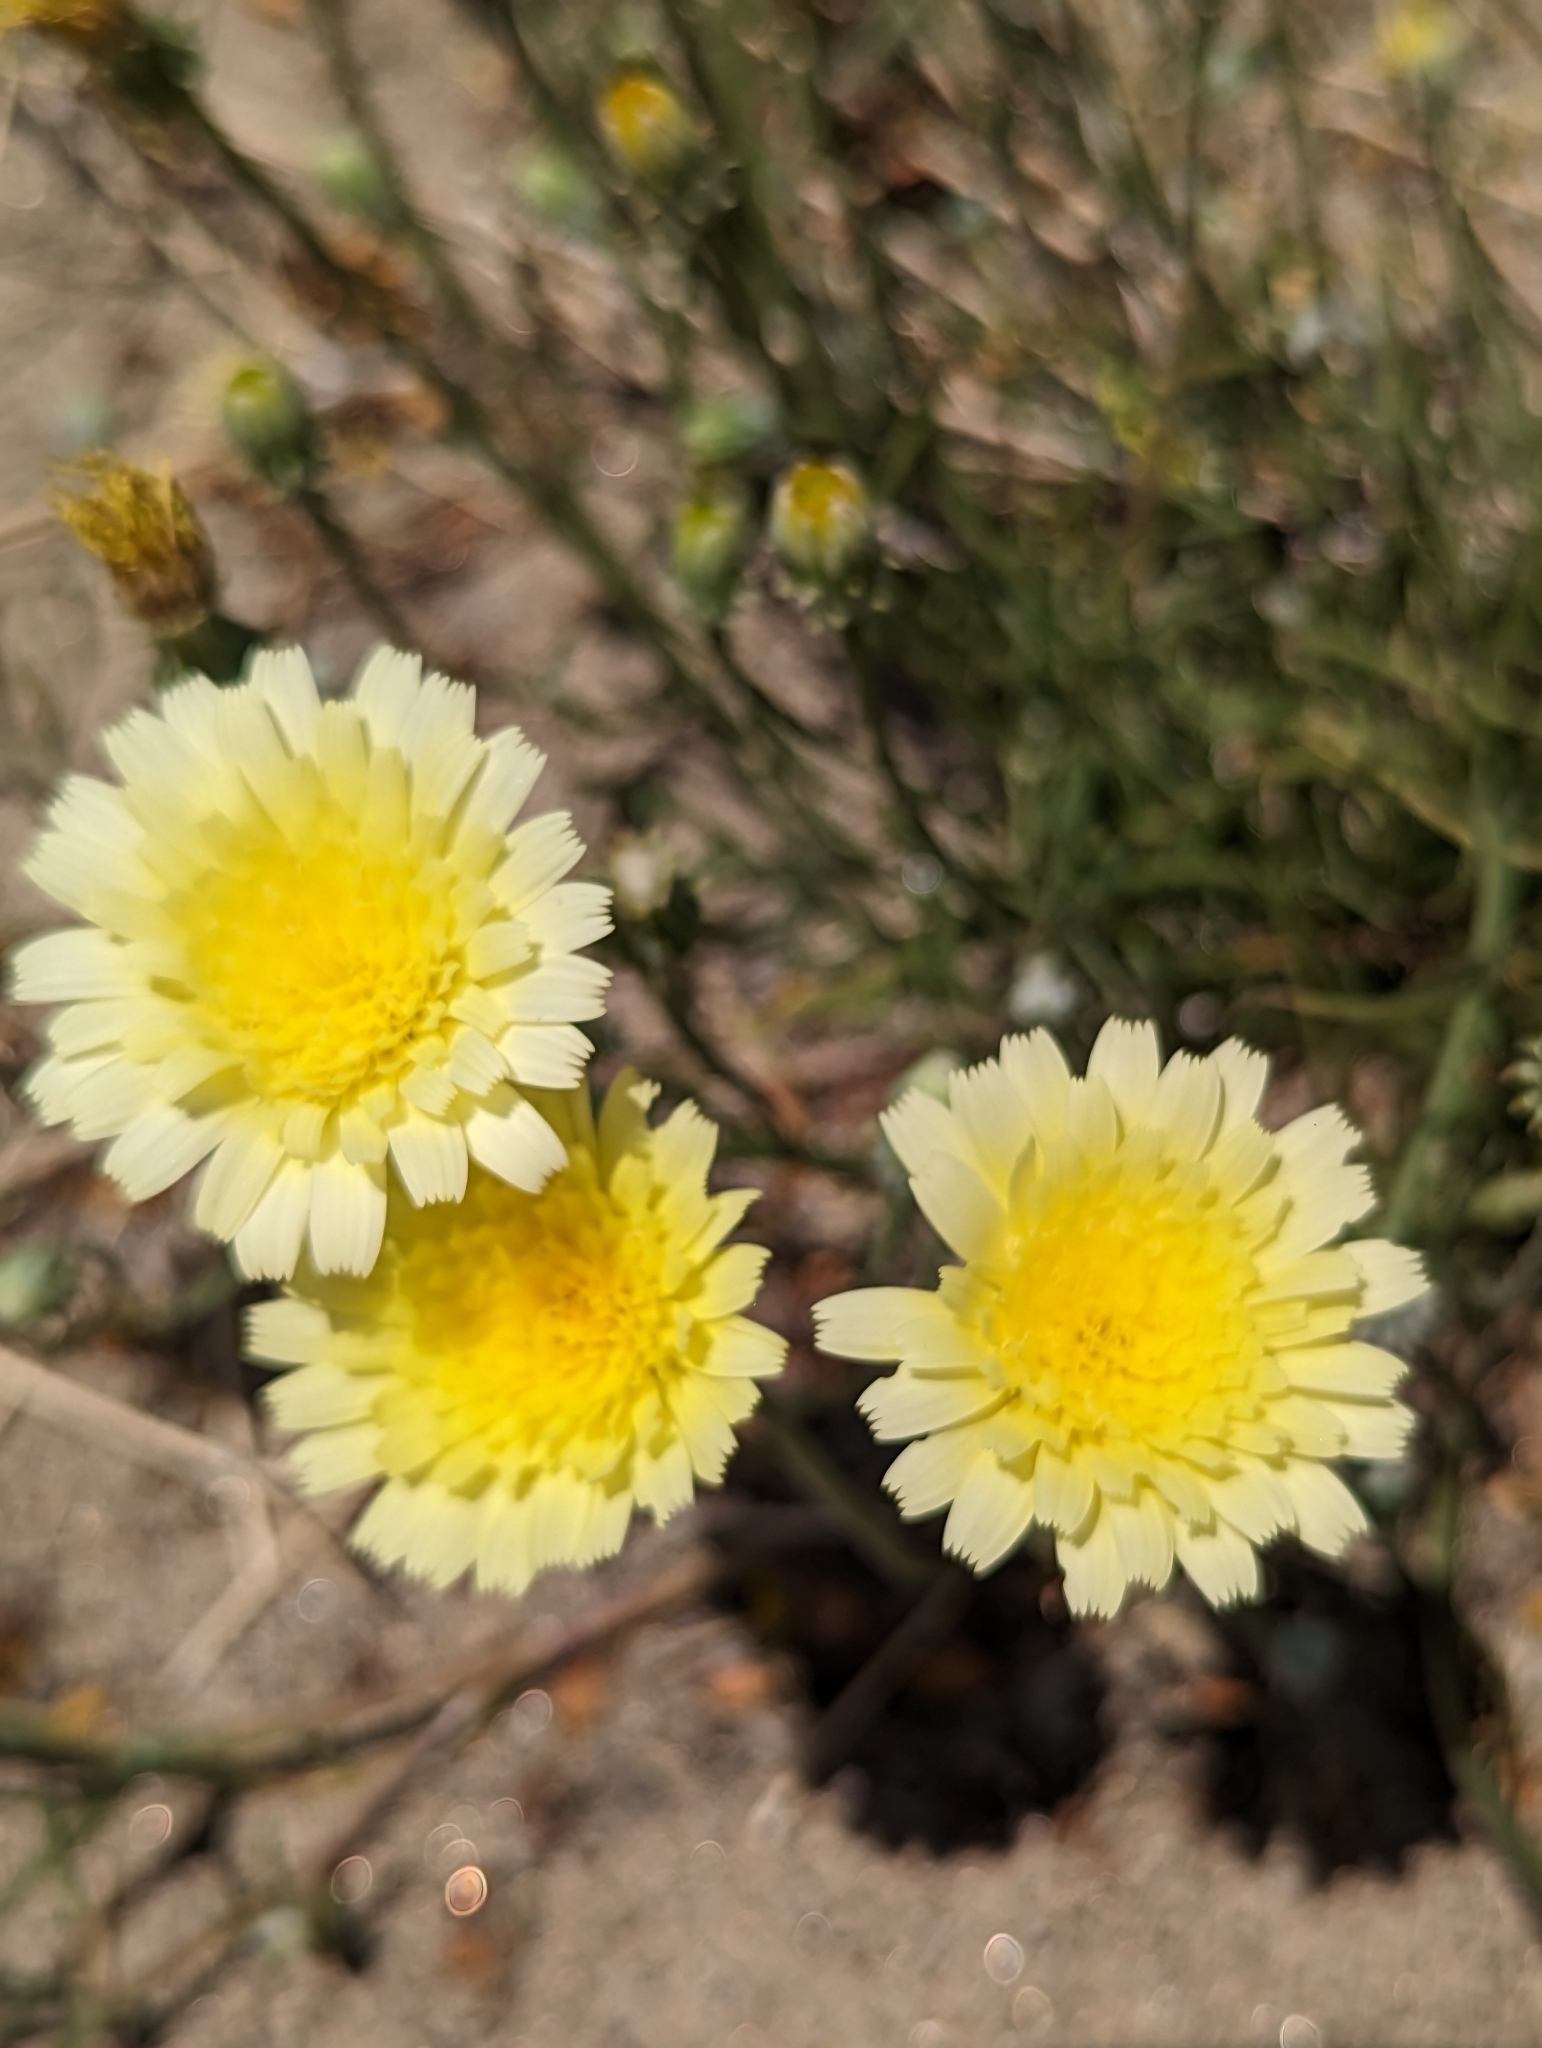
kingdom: Plantae
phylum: Tracheophyta
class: Magnoliopsida
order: Asterales
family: Asteraceae
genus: Malacothrix
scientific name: Malacothrix glabrata
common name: Smooth desert-dandelion
